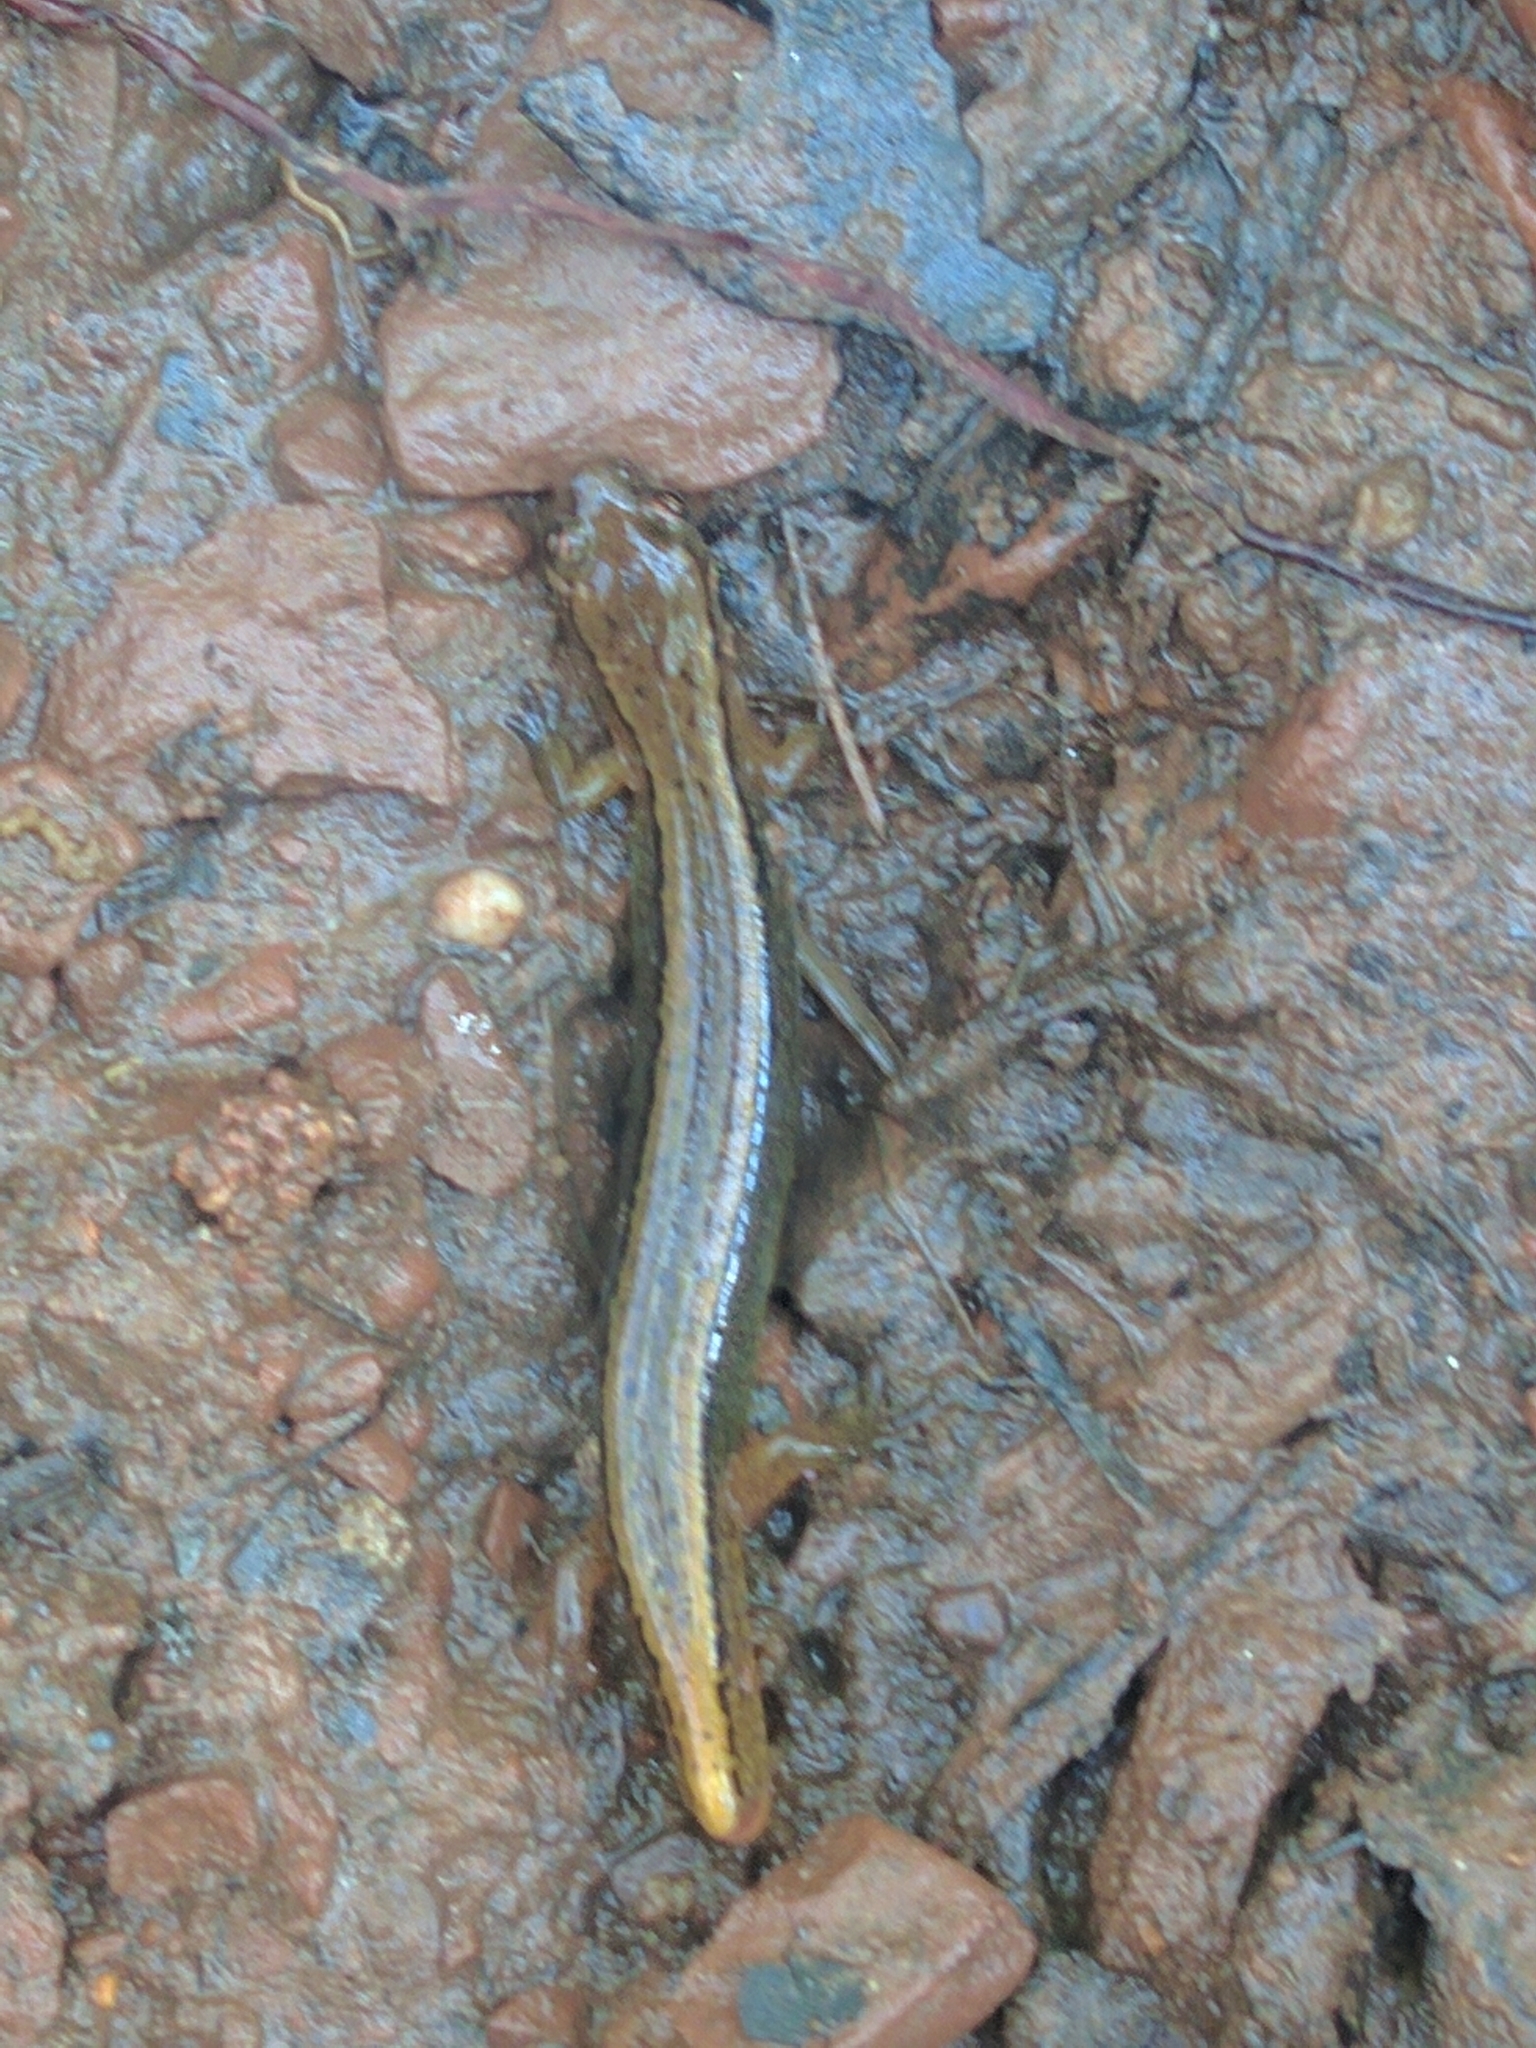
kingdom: Animalia
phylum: Chordata
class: Amphibia
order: Caudata
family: Plethodontidae
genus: Eurycea
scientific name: Eurycea bislineata
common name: Northern two-lined salamander
